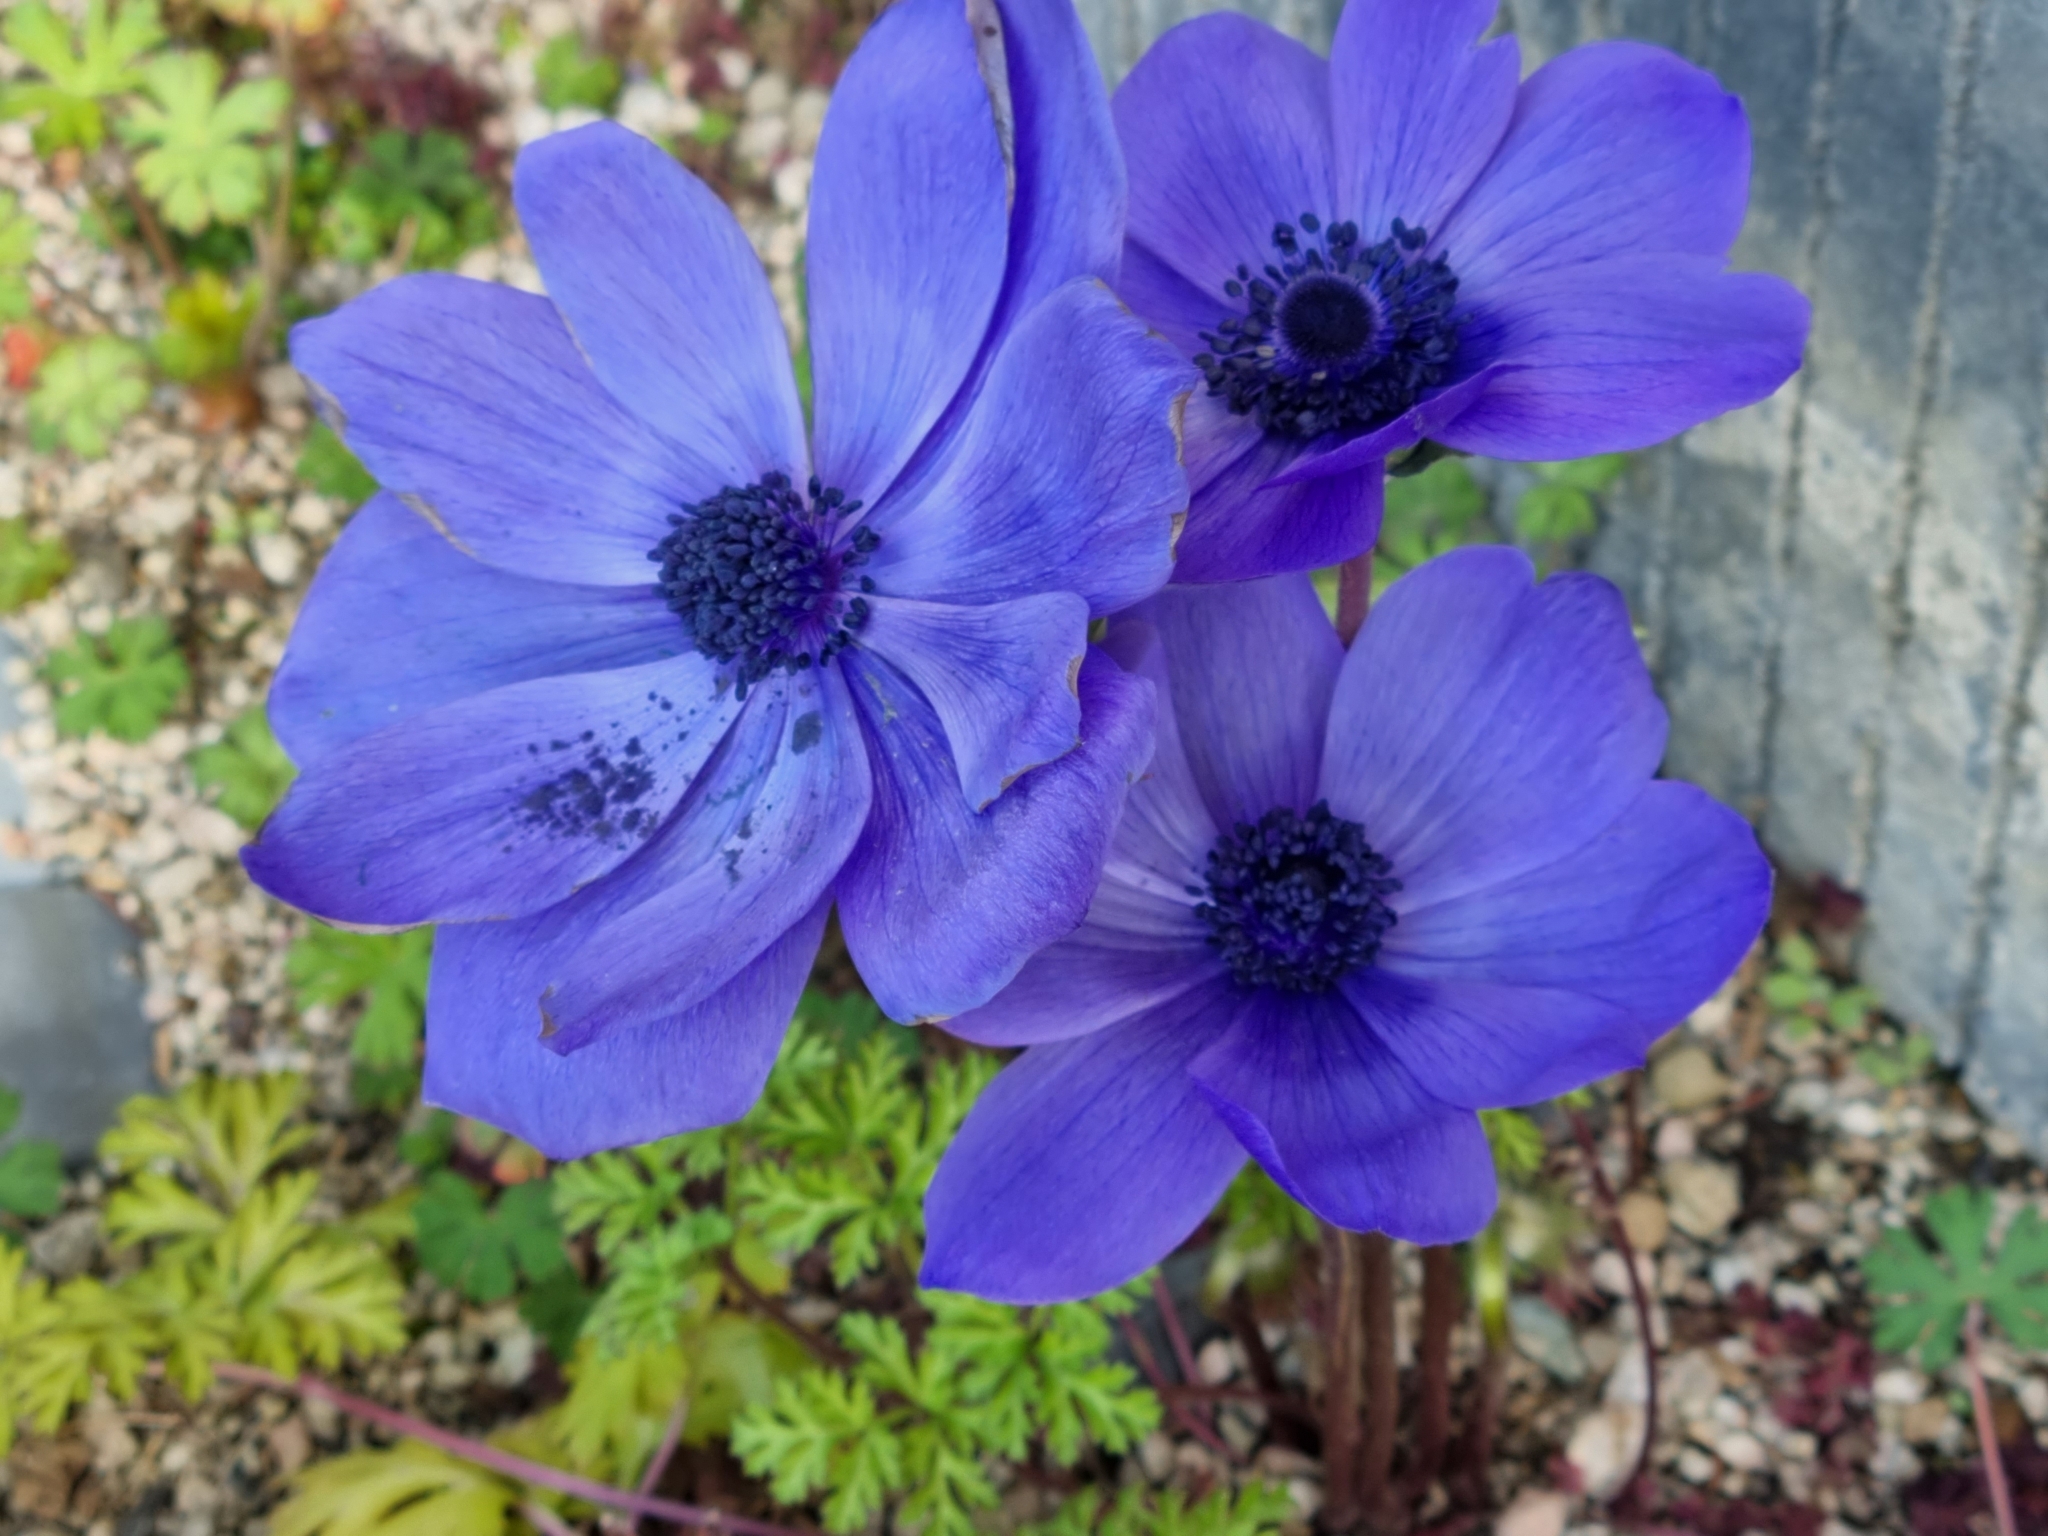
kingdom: Plantae
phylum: Tracheophyta
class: Magnoliopsida
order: Ranunculales
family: Ranunculaceae
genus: Anemone
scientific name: Anemone coronaria
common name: Poppy anemone
